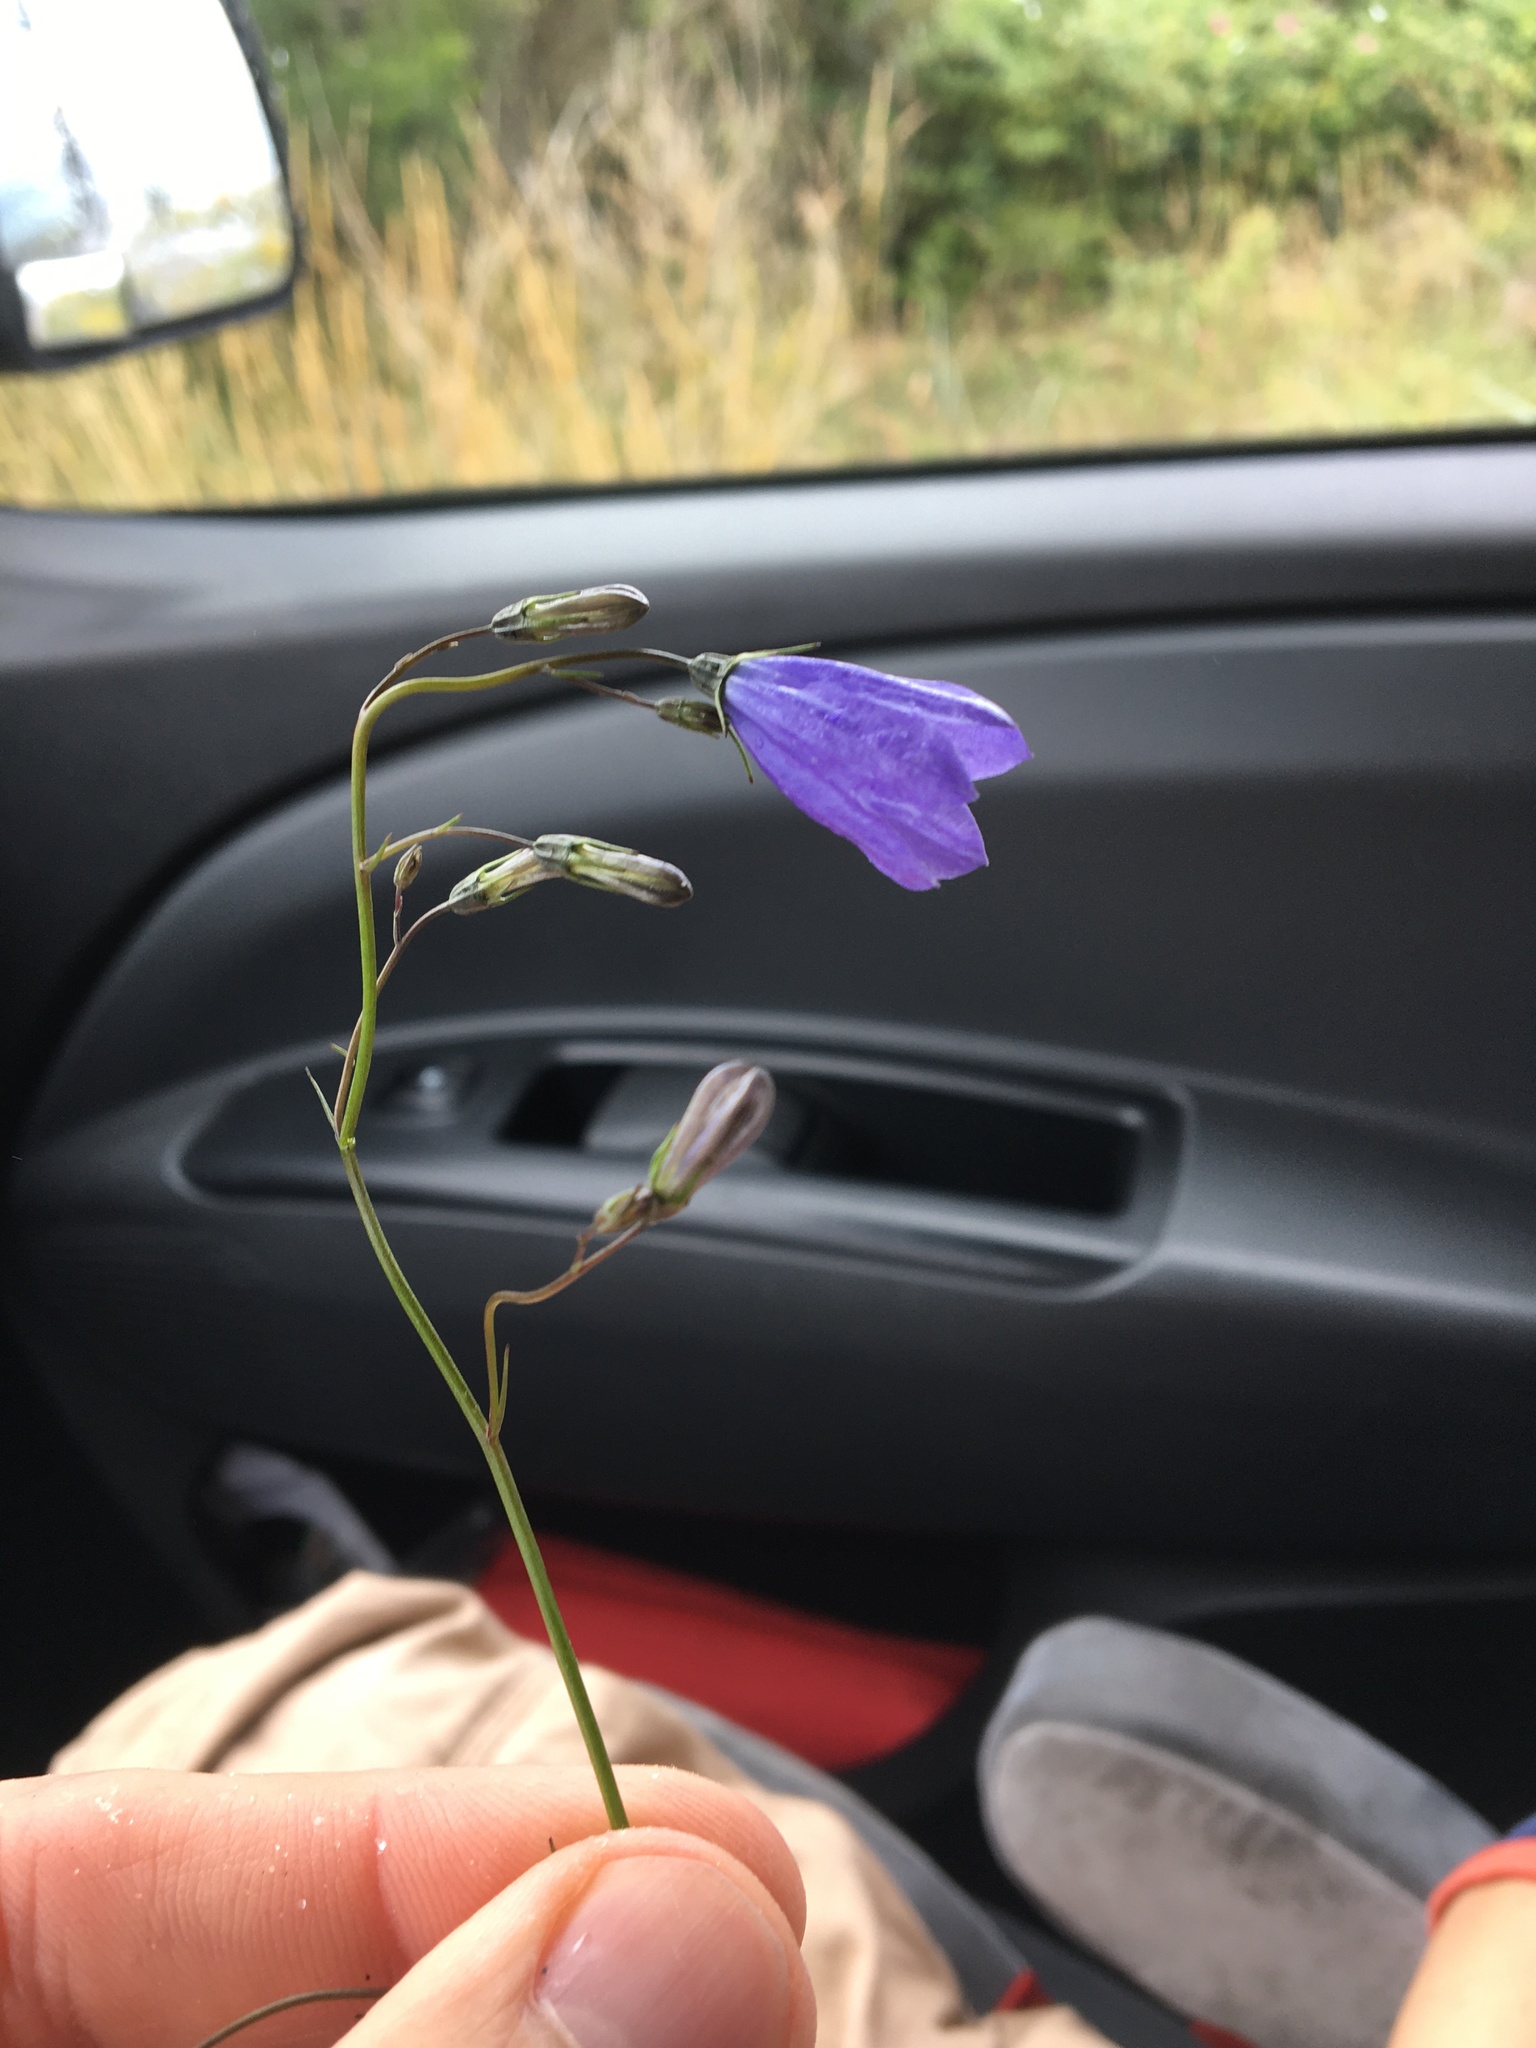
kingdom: Plantae
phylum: Tracheophyta
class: Magnoliopsida
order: Asterales
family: Campanulaceae
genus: Campanula
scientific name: Campanula rotundifolia
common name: Harebell
